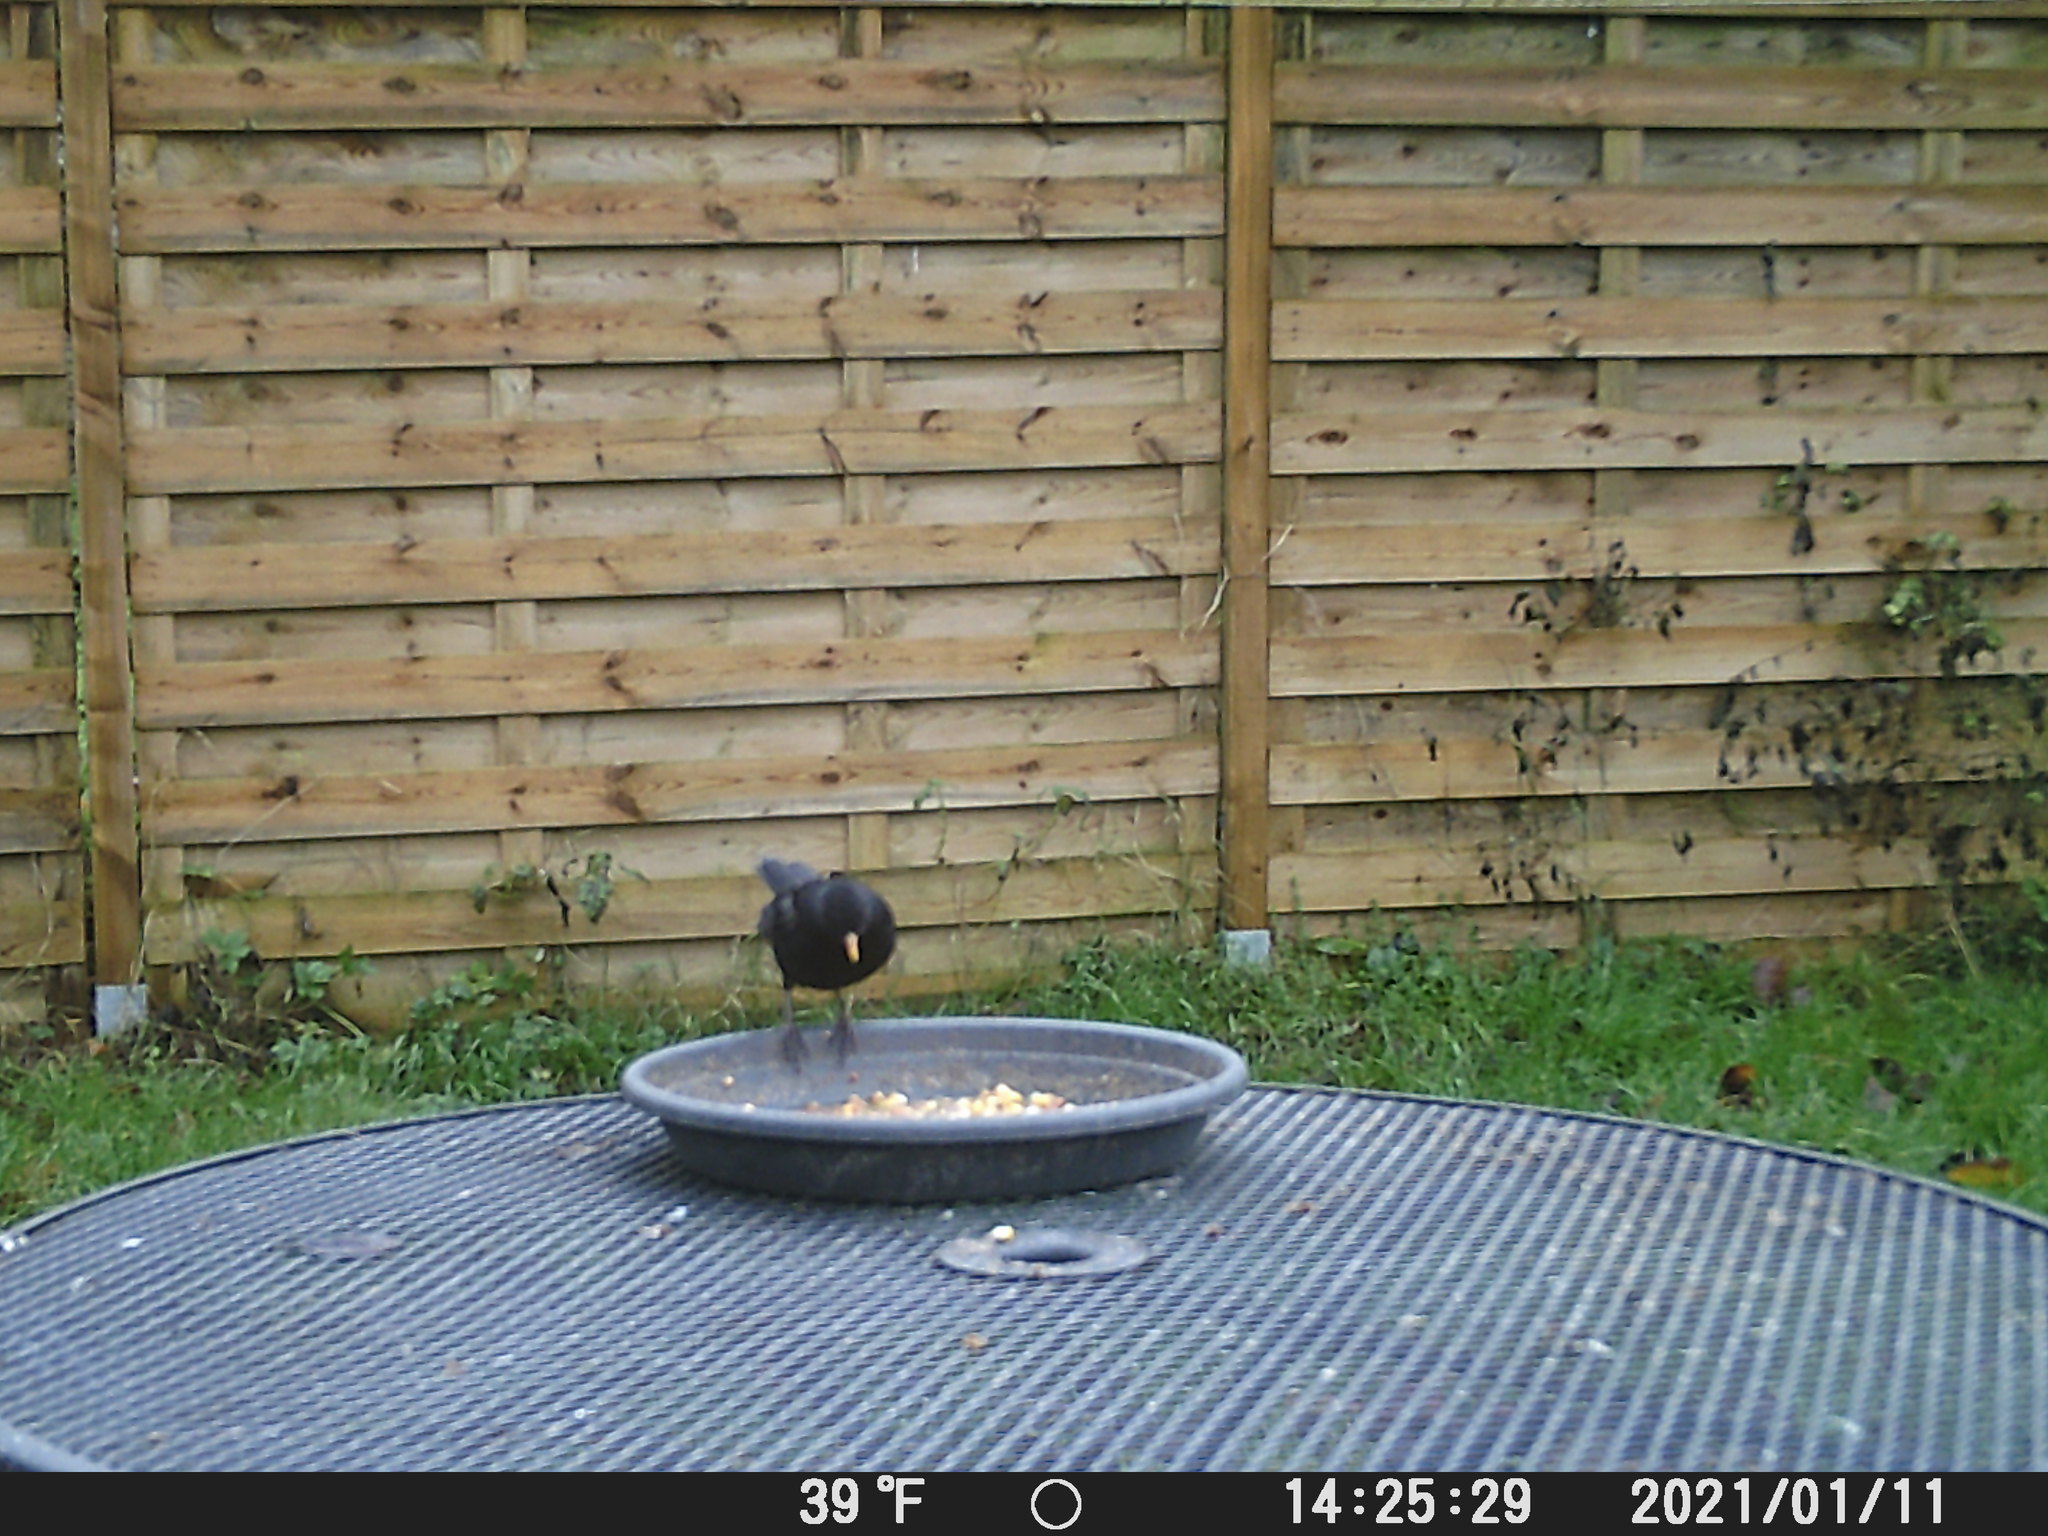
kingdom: Animalia
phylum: Chordata
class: Aves
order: Passeriformes
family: Turdidae
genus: Turdus
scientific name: Turdus merula
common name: Common blackbird
